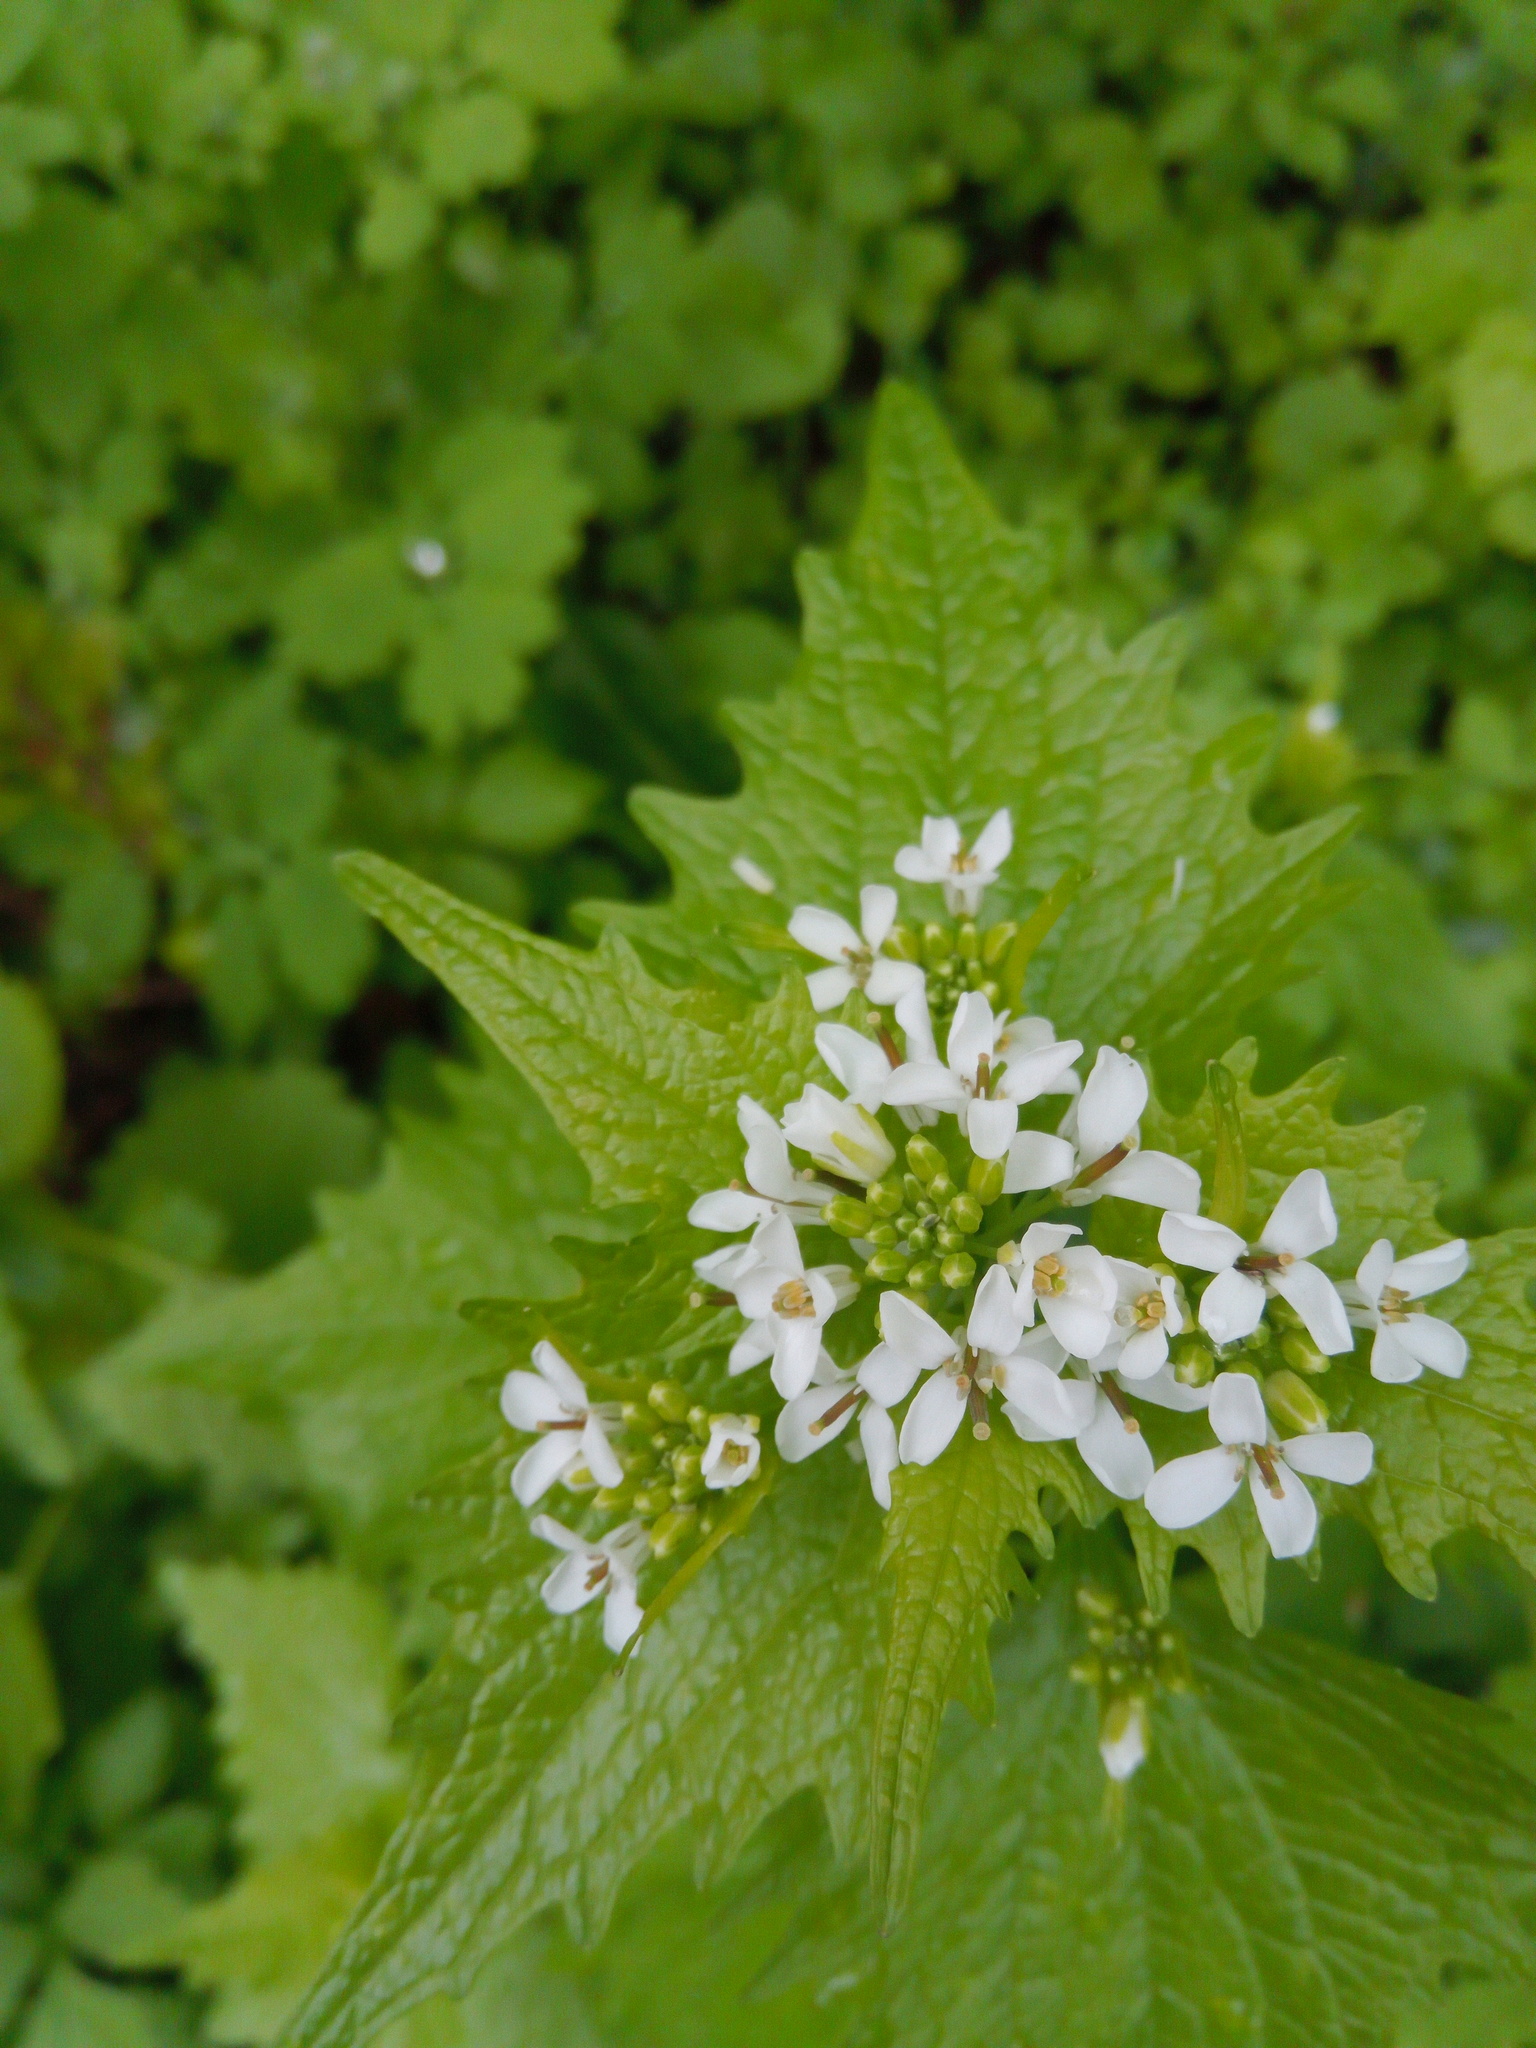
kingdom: Plantae
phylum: Tracheophyta
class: Magnoliopsida
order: Brassicales
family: Brassicaceae
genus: Alliaria
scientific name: Alliaria petiolata
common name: Garlic mustard
